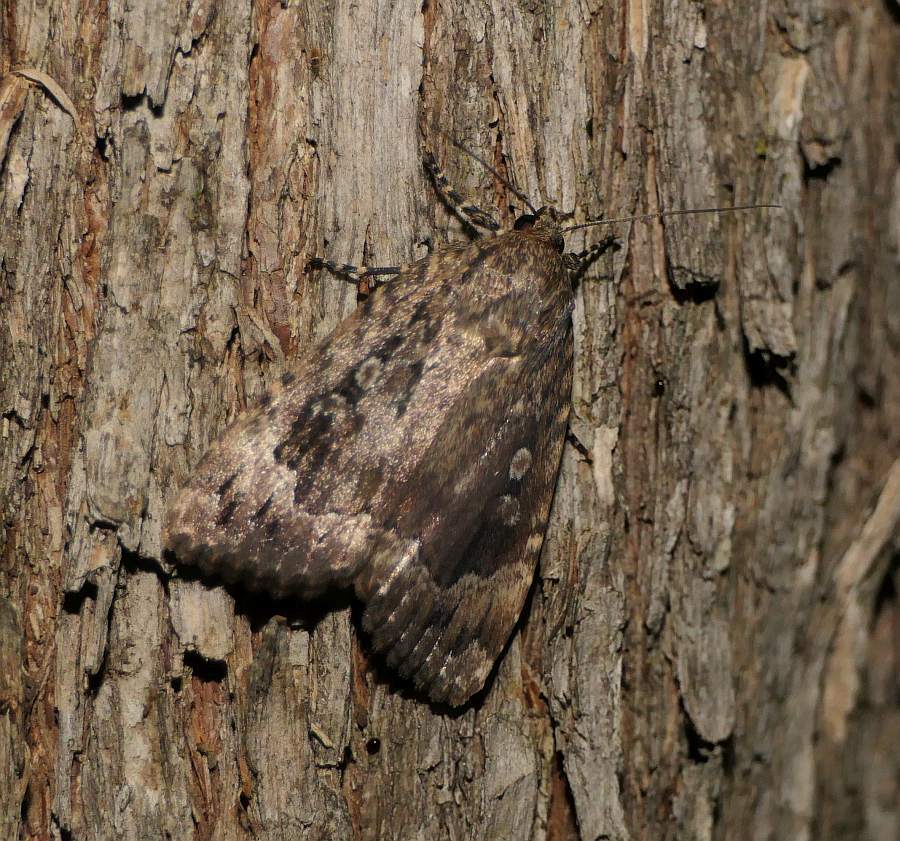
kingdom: Animalia
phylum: Arthropoda
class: Insecta
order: Lepidoptera
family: Noctuidae
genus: Amphipyra
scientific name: Amphipyra pyramidoides
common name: American copper underwing
